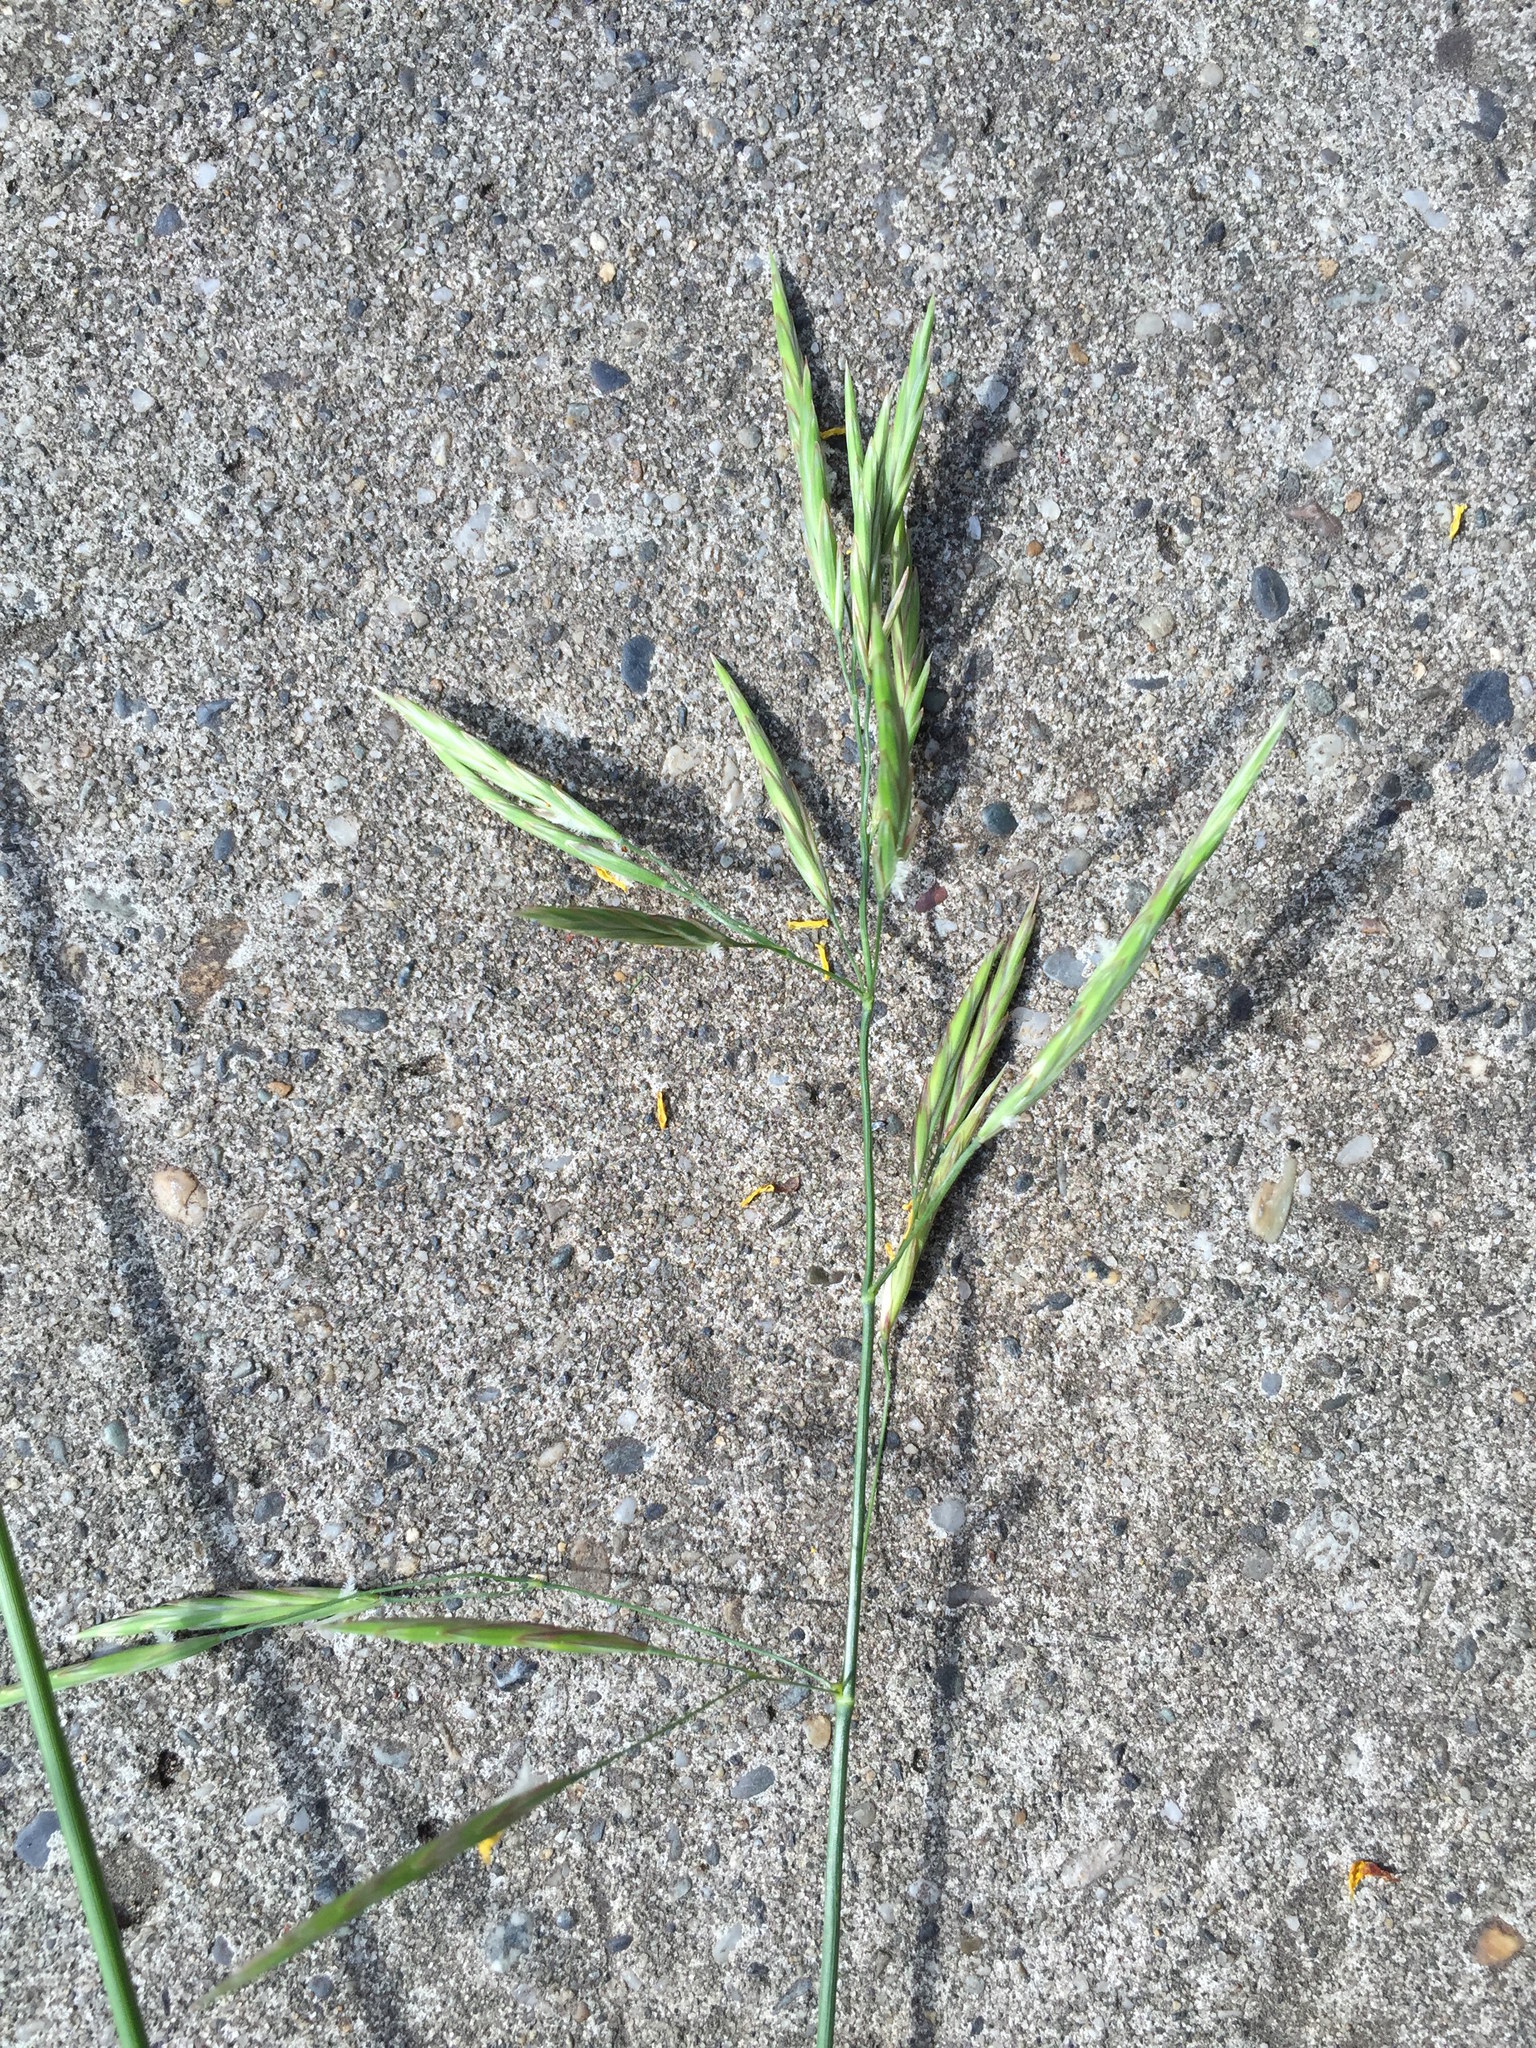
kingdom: Plantae
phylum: Tracheophyta
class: Liliopsida
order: Poales
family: Poaceae
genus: Bromus
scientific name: Bromus inermis
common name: Smooth brome
